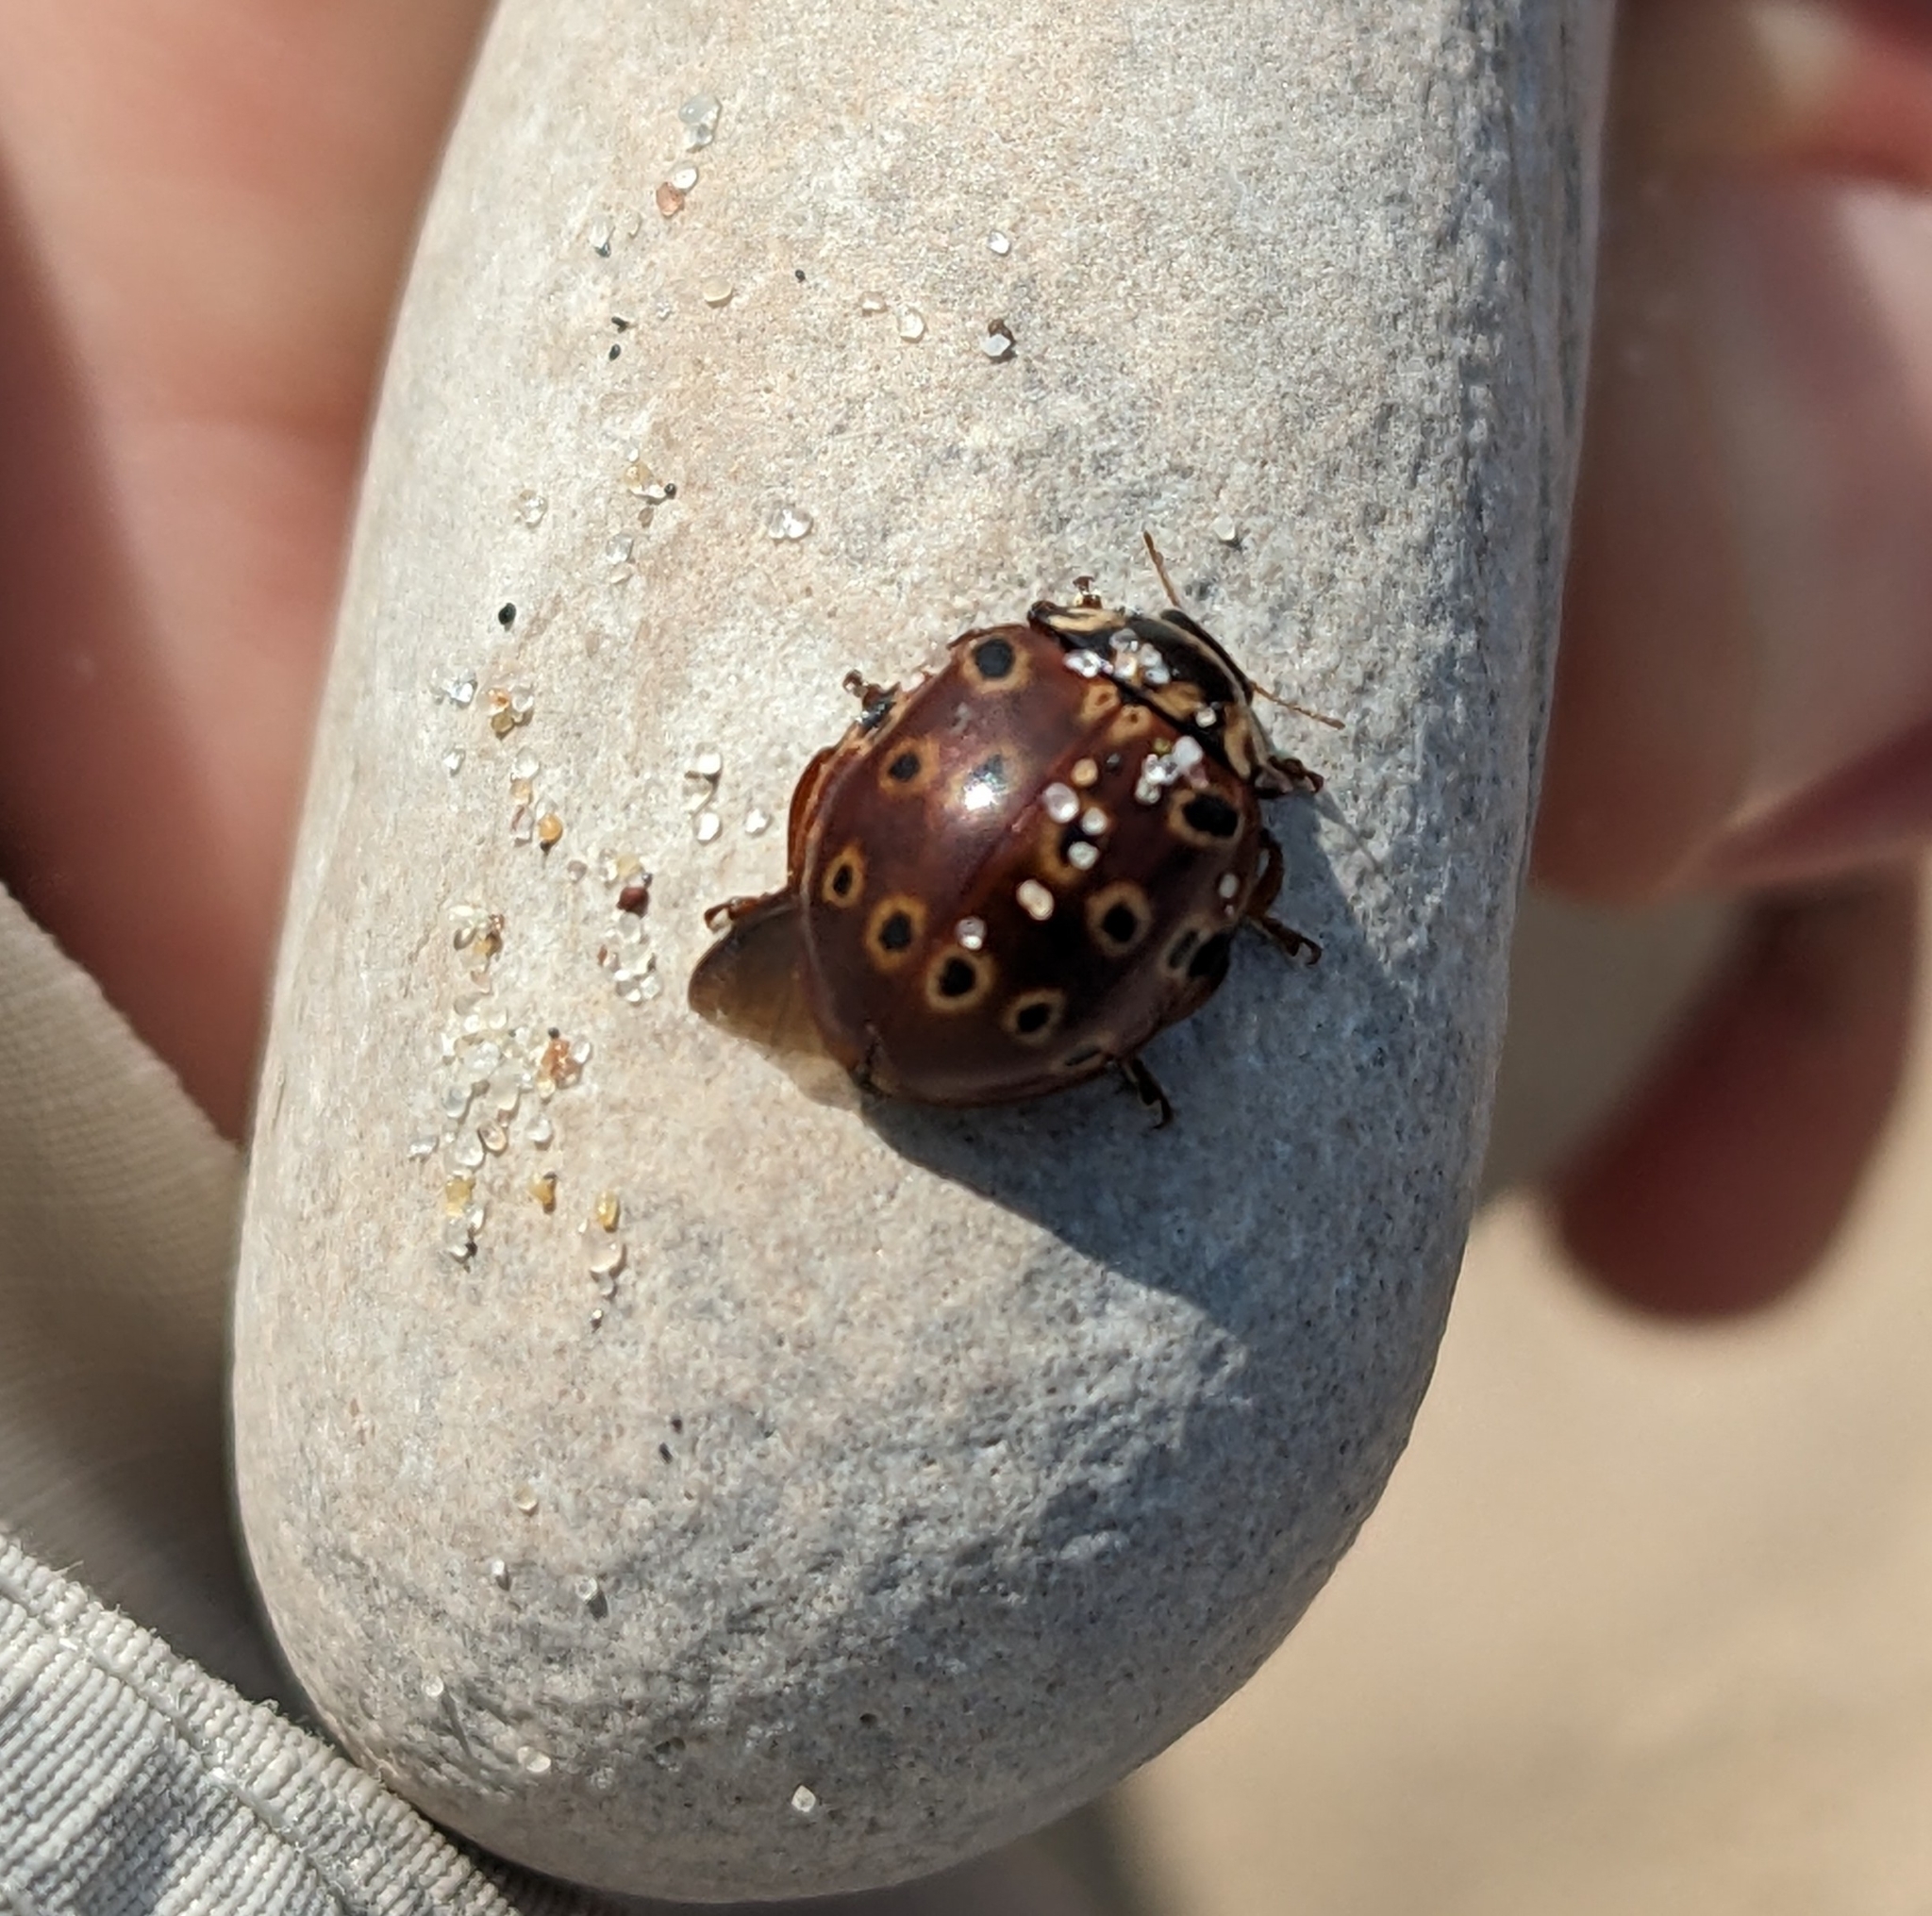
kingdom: Animalia
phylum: Arthropoda
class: Insecta
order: Coleoptera
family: Coccinellidae
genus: Anatis
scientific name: Anatis mali
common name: Eye-spotted lady beetle
